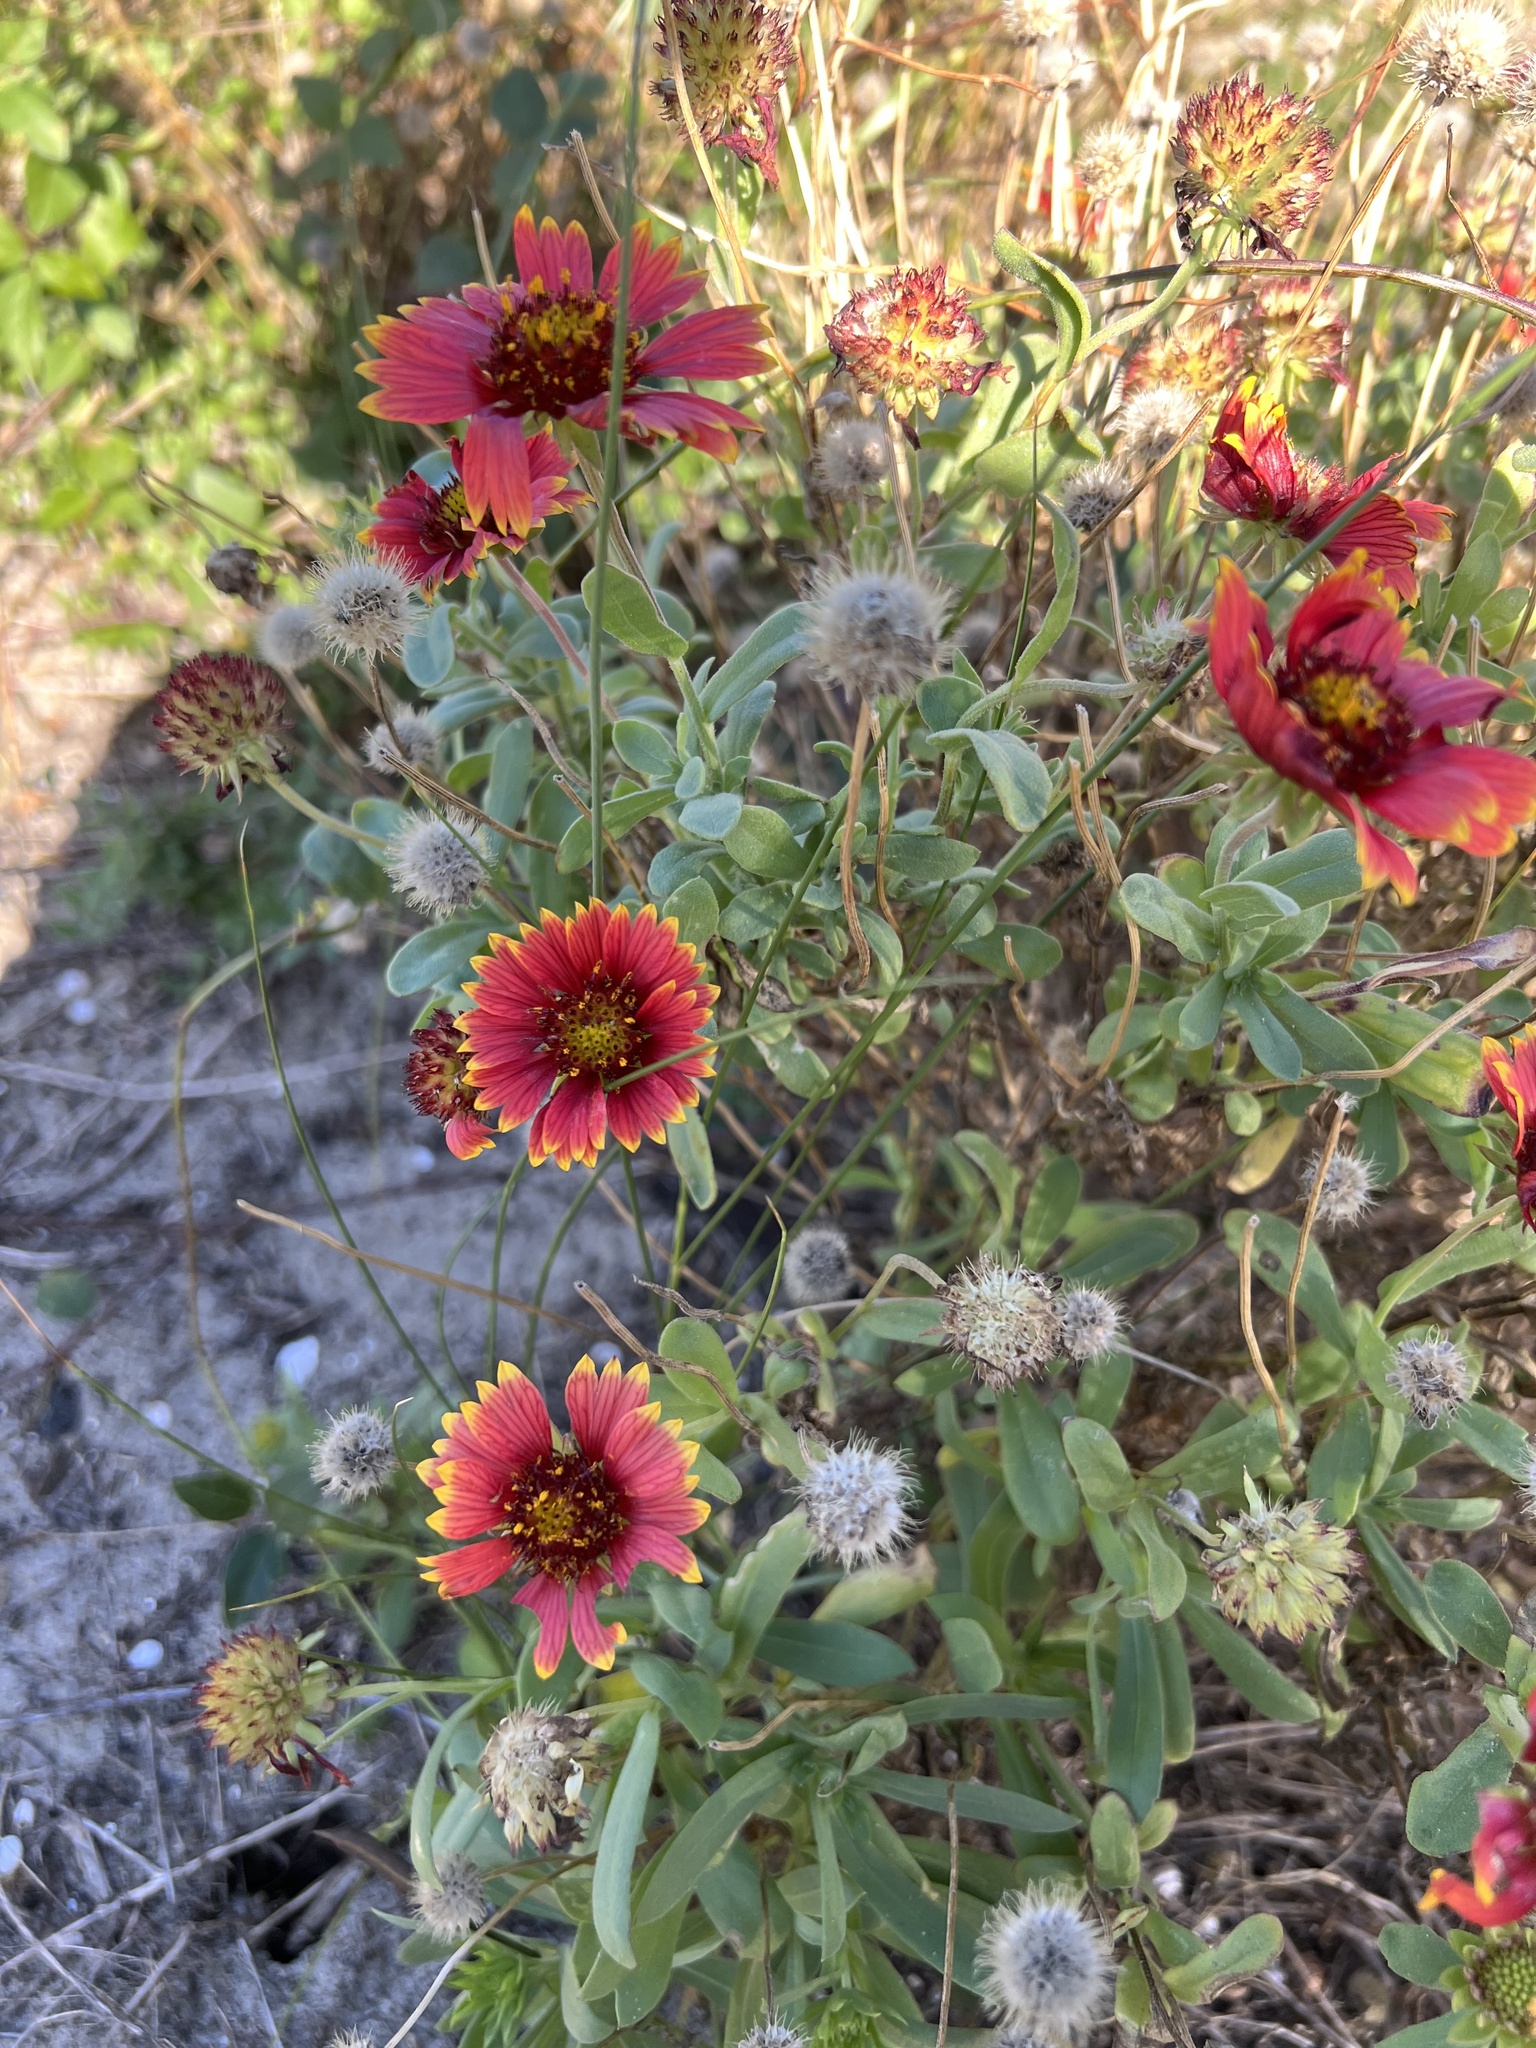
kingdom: Plantae
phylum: Tracheophyta
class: Magnoliopsida
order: Asterales
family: Asteraceae
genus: Gaillardia
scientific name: Gaillardia pulchella
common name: Firewheel
